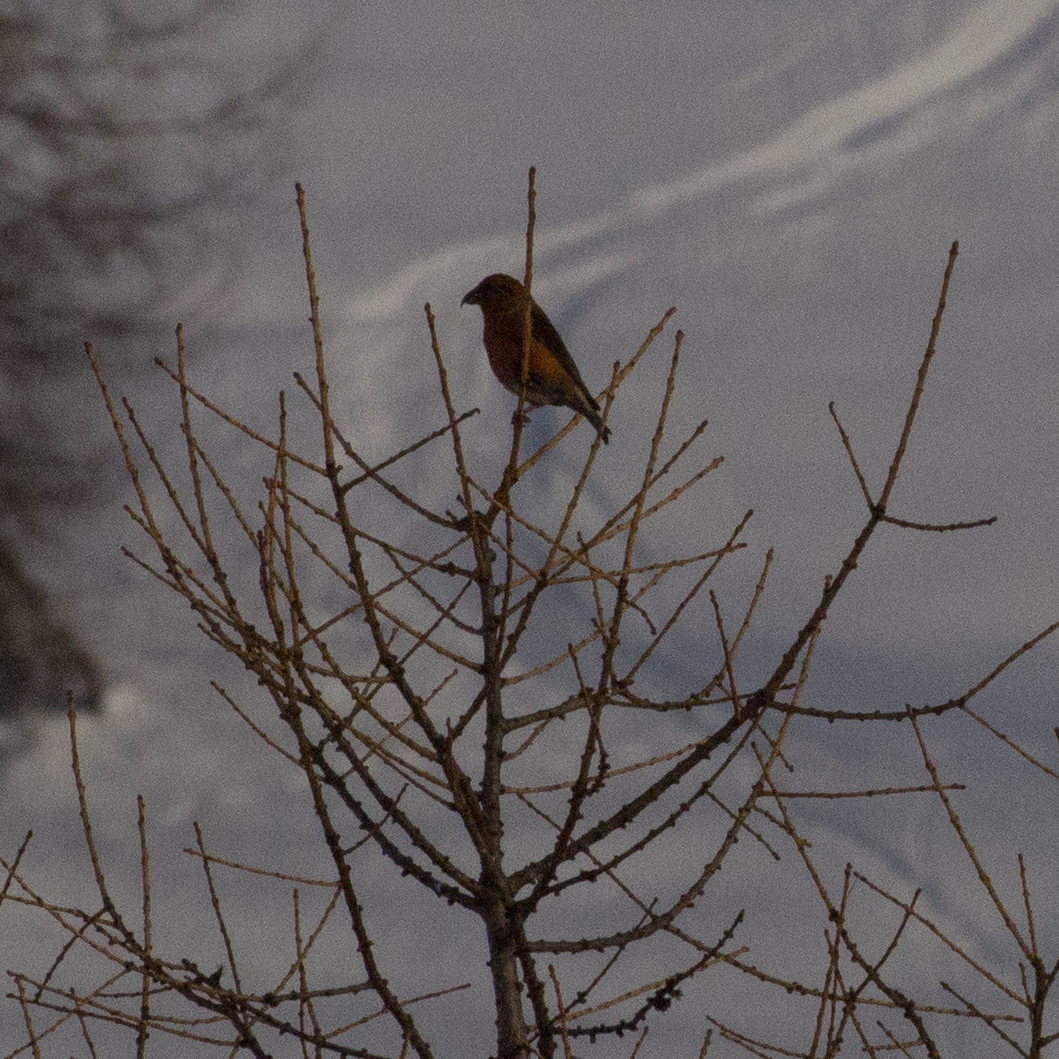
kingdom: Animalia
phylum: Chordata
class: Aves
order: Passeriformes
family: Fringillidae
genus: Loxia
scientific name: Loxia curvirostra
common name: Red crossbill
